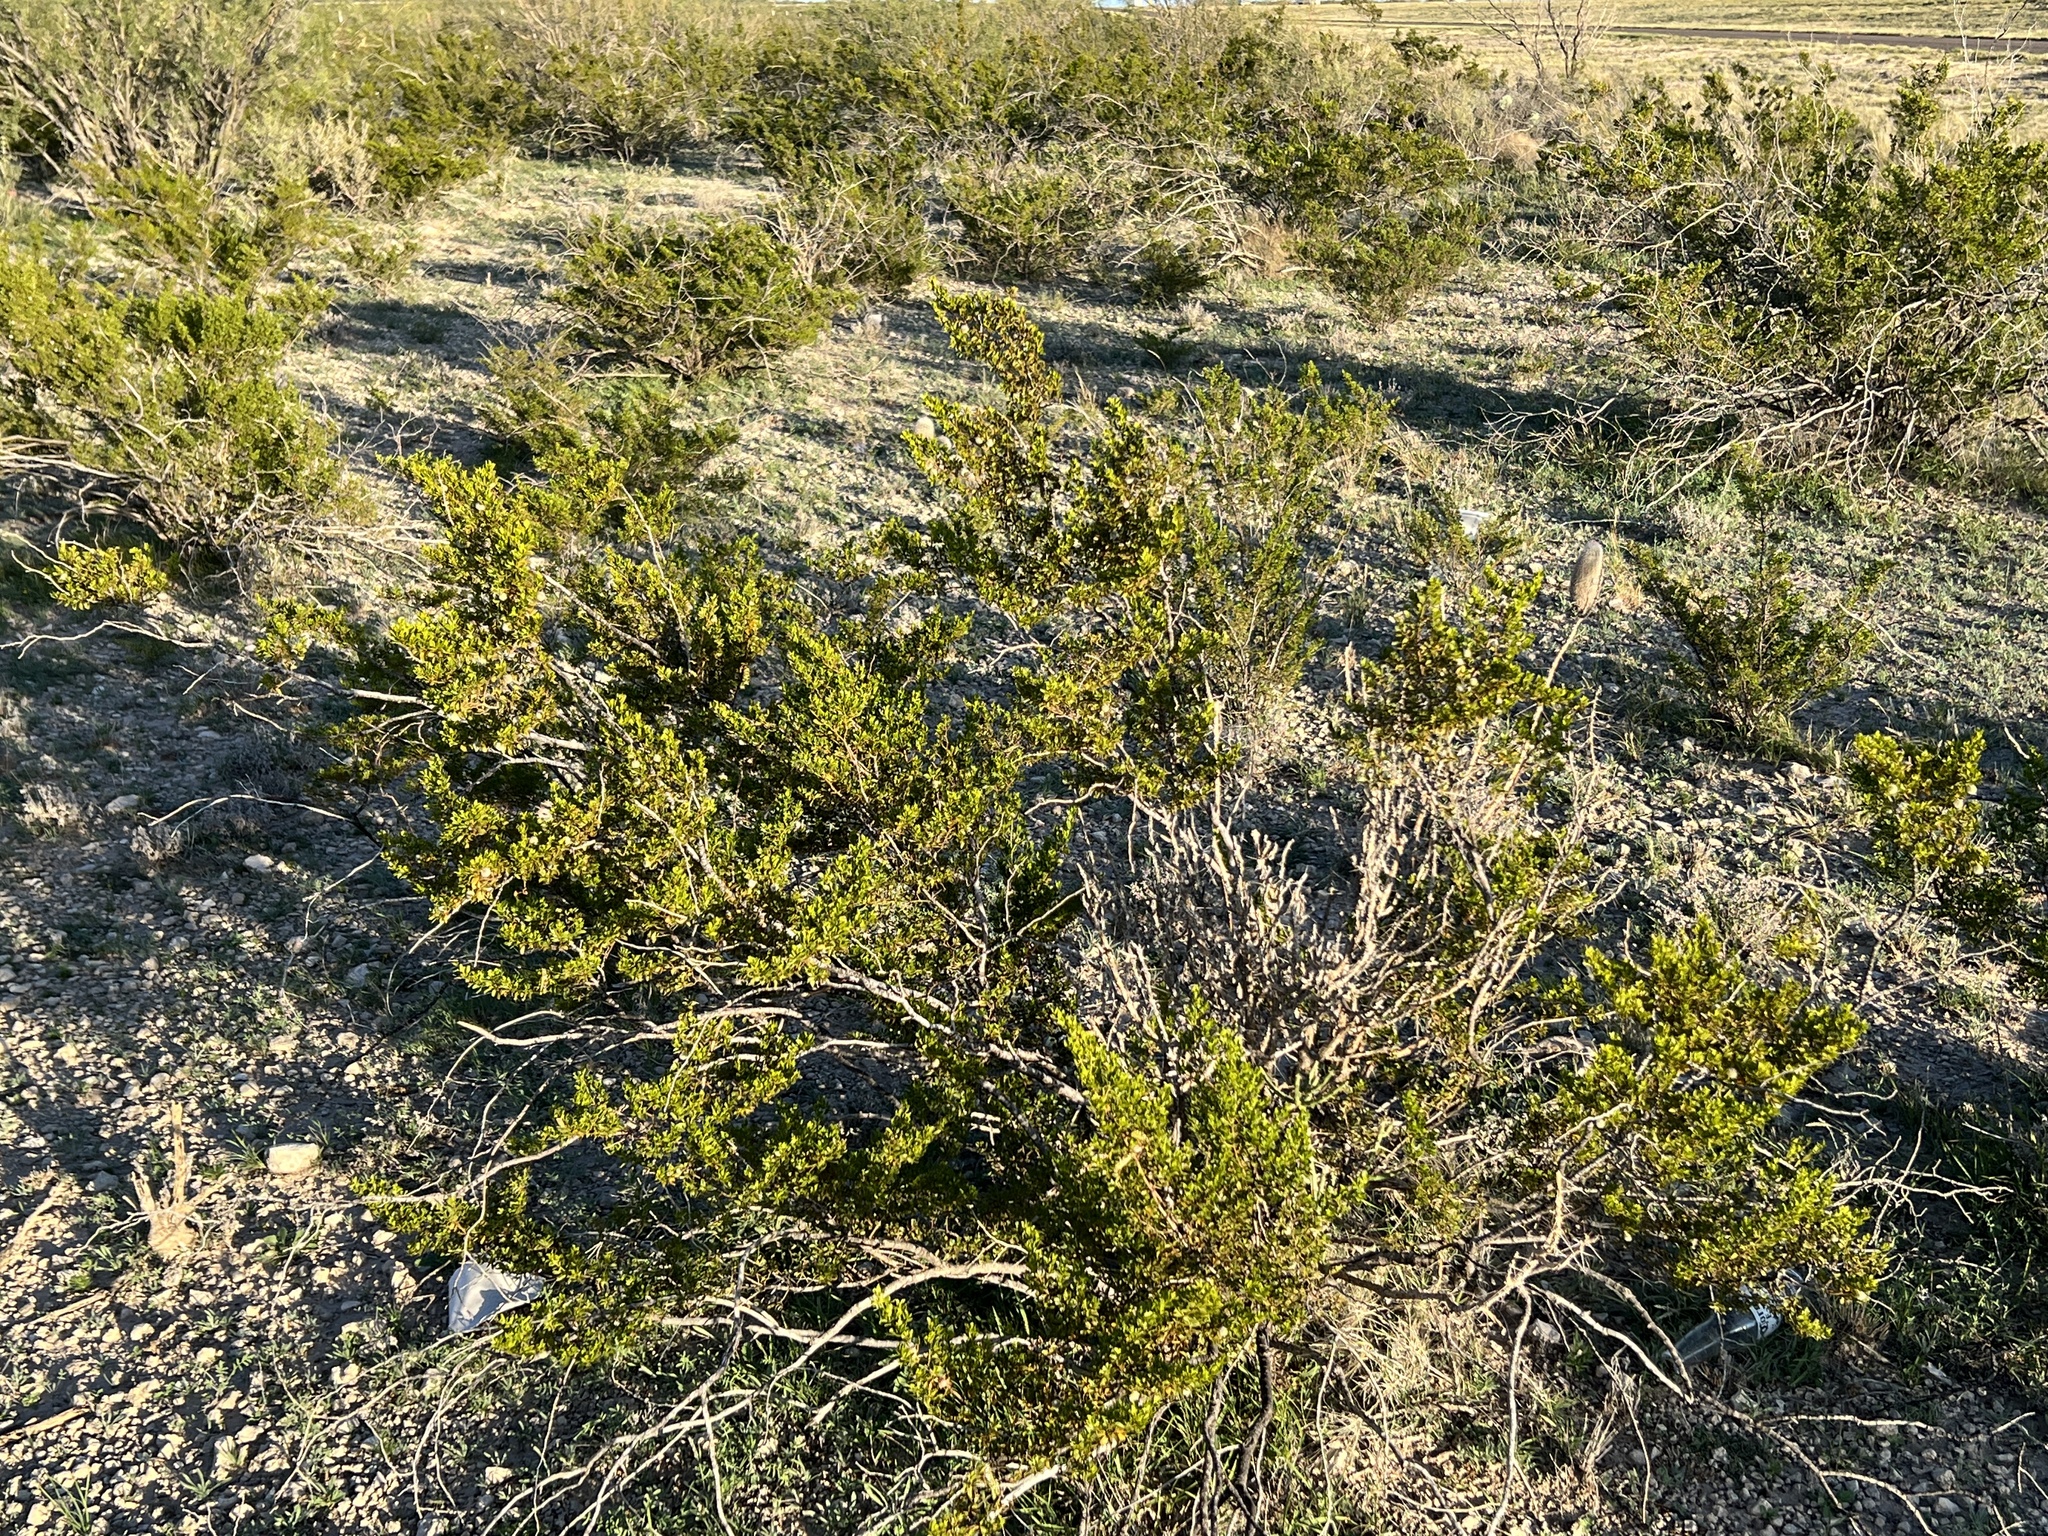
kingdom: Plantae
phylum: Tracheophyta
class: Magnoliopsida
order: Zygophyllales
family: Zygophyllaceae
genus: Larrea
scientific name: Larrea tridentata
